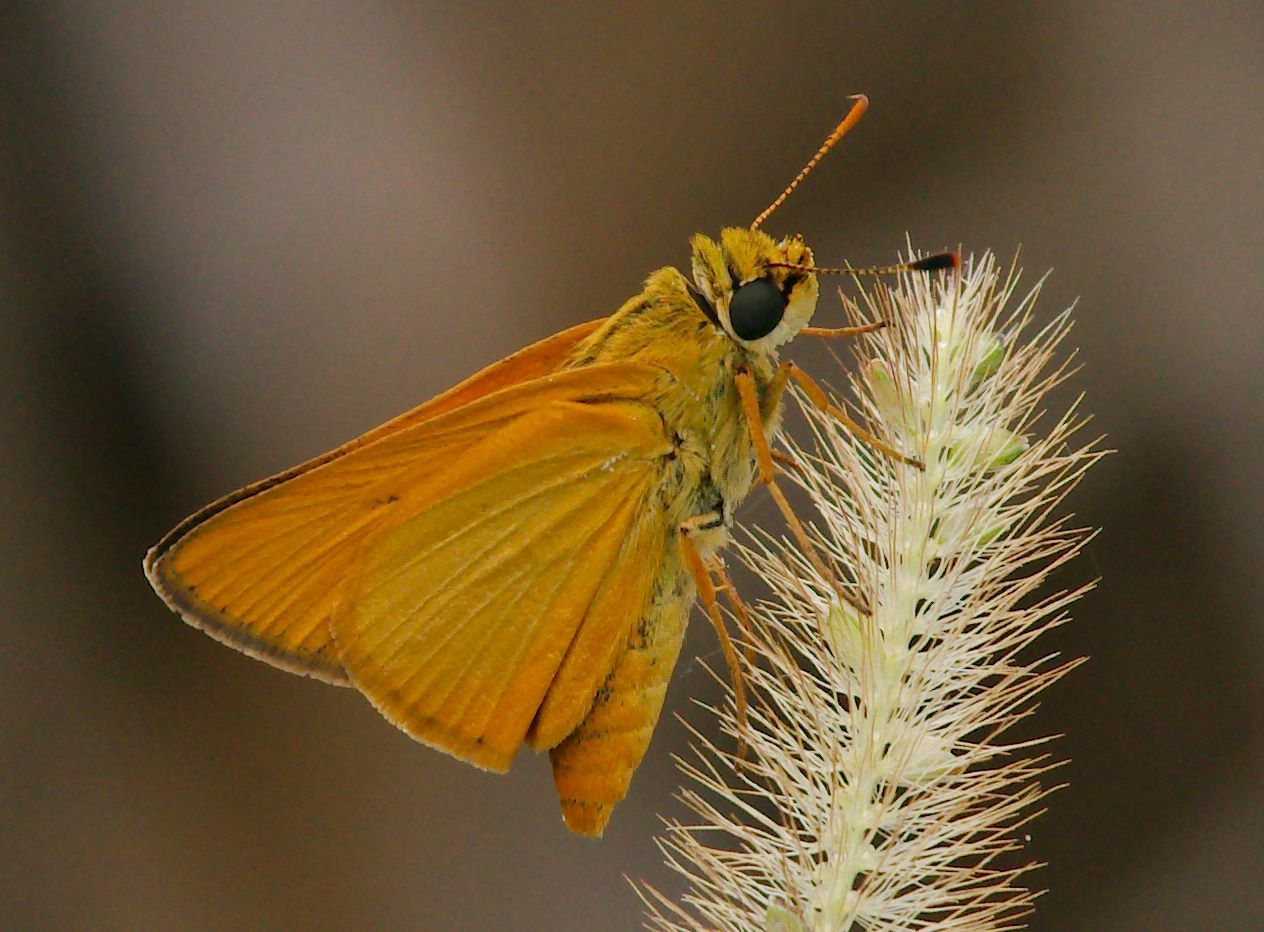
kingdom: Animalia
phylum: Arthropoda
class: Insecta
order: Lepidoptera
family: Hesperiidae
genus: Atrytone
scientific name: Atrytone delaware
